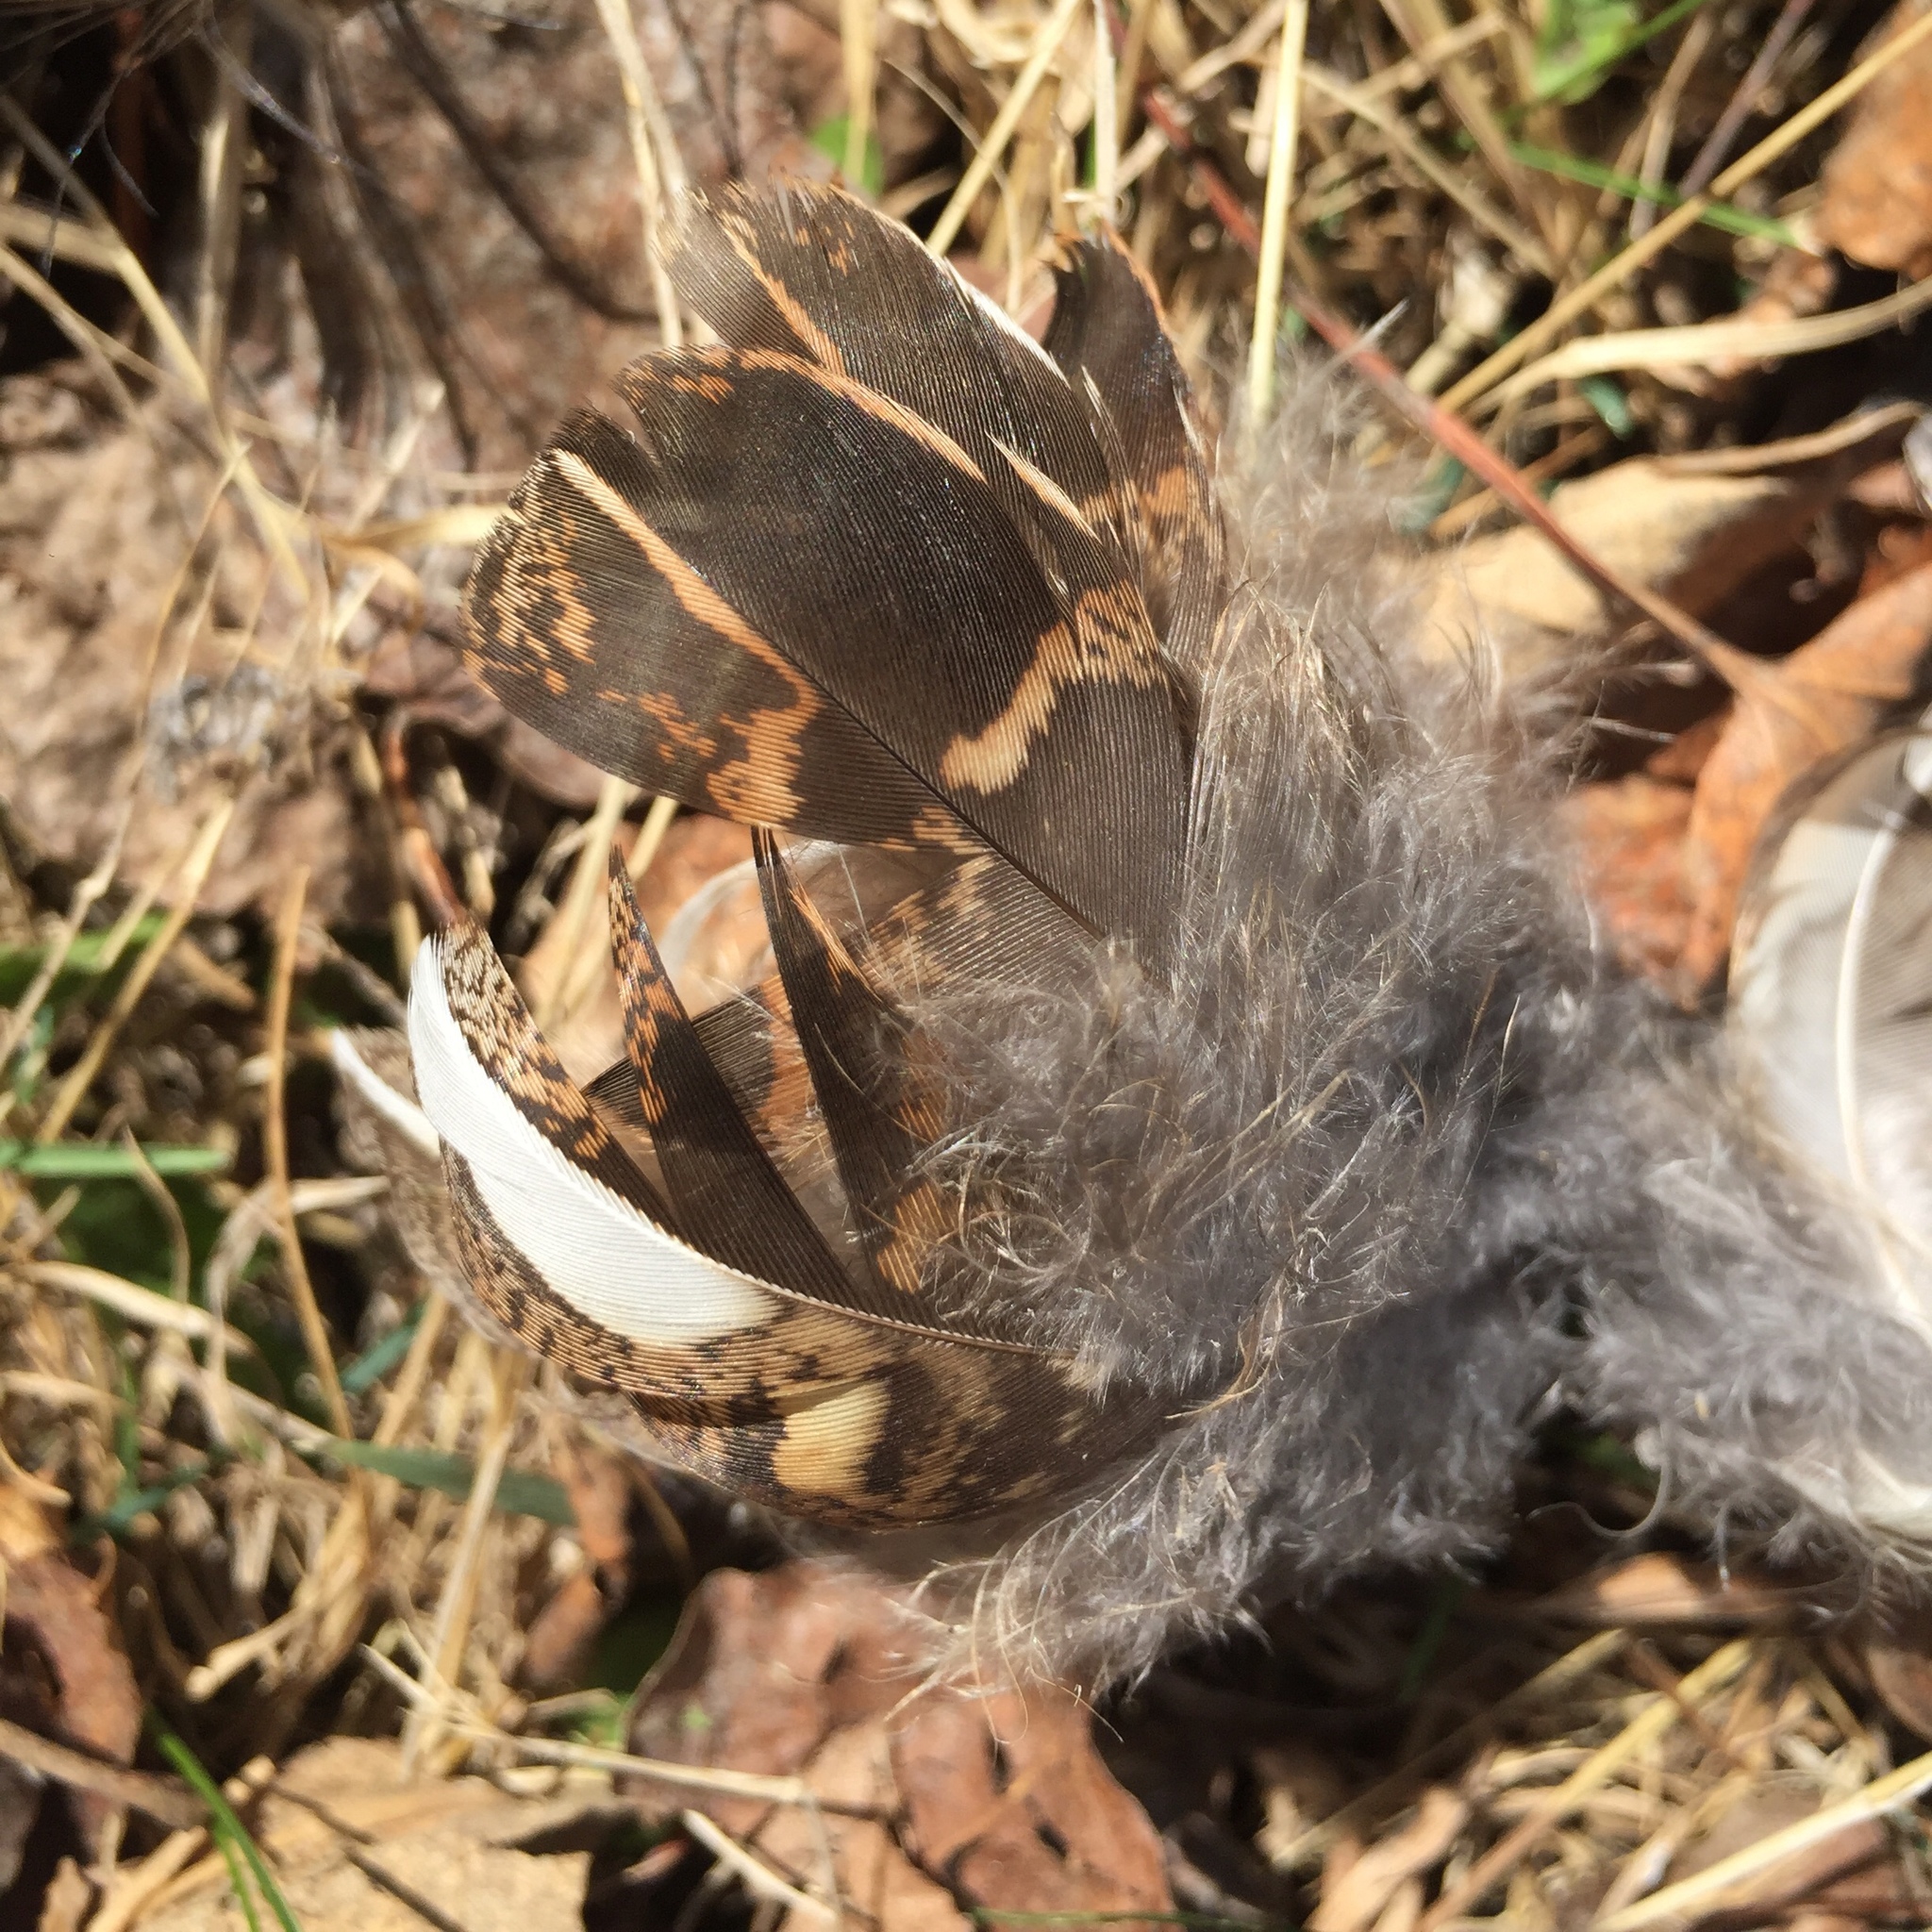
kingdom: Animalia
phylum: Chordata
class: Aves
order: Galliformes
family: Phasianidae
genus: Perdix
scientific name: Perdix perdix
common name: Grey partridge
